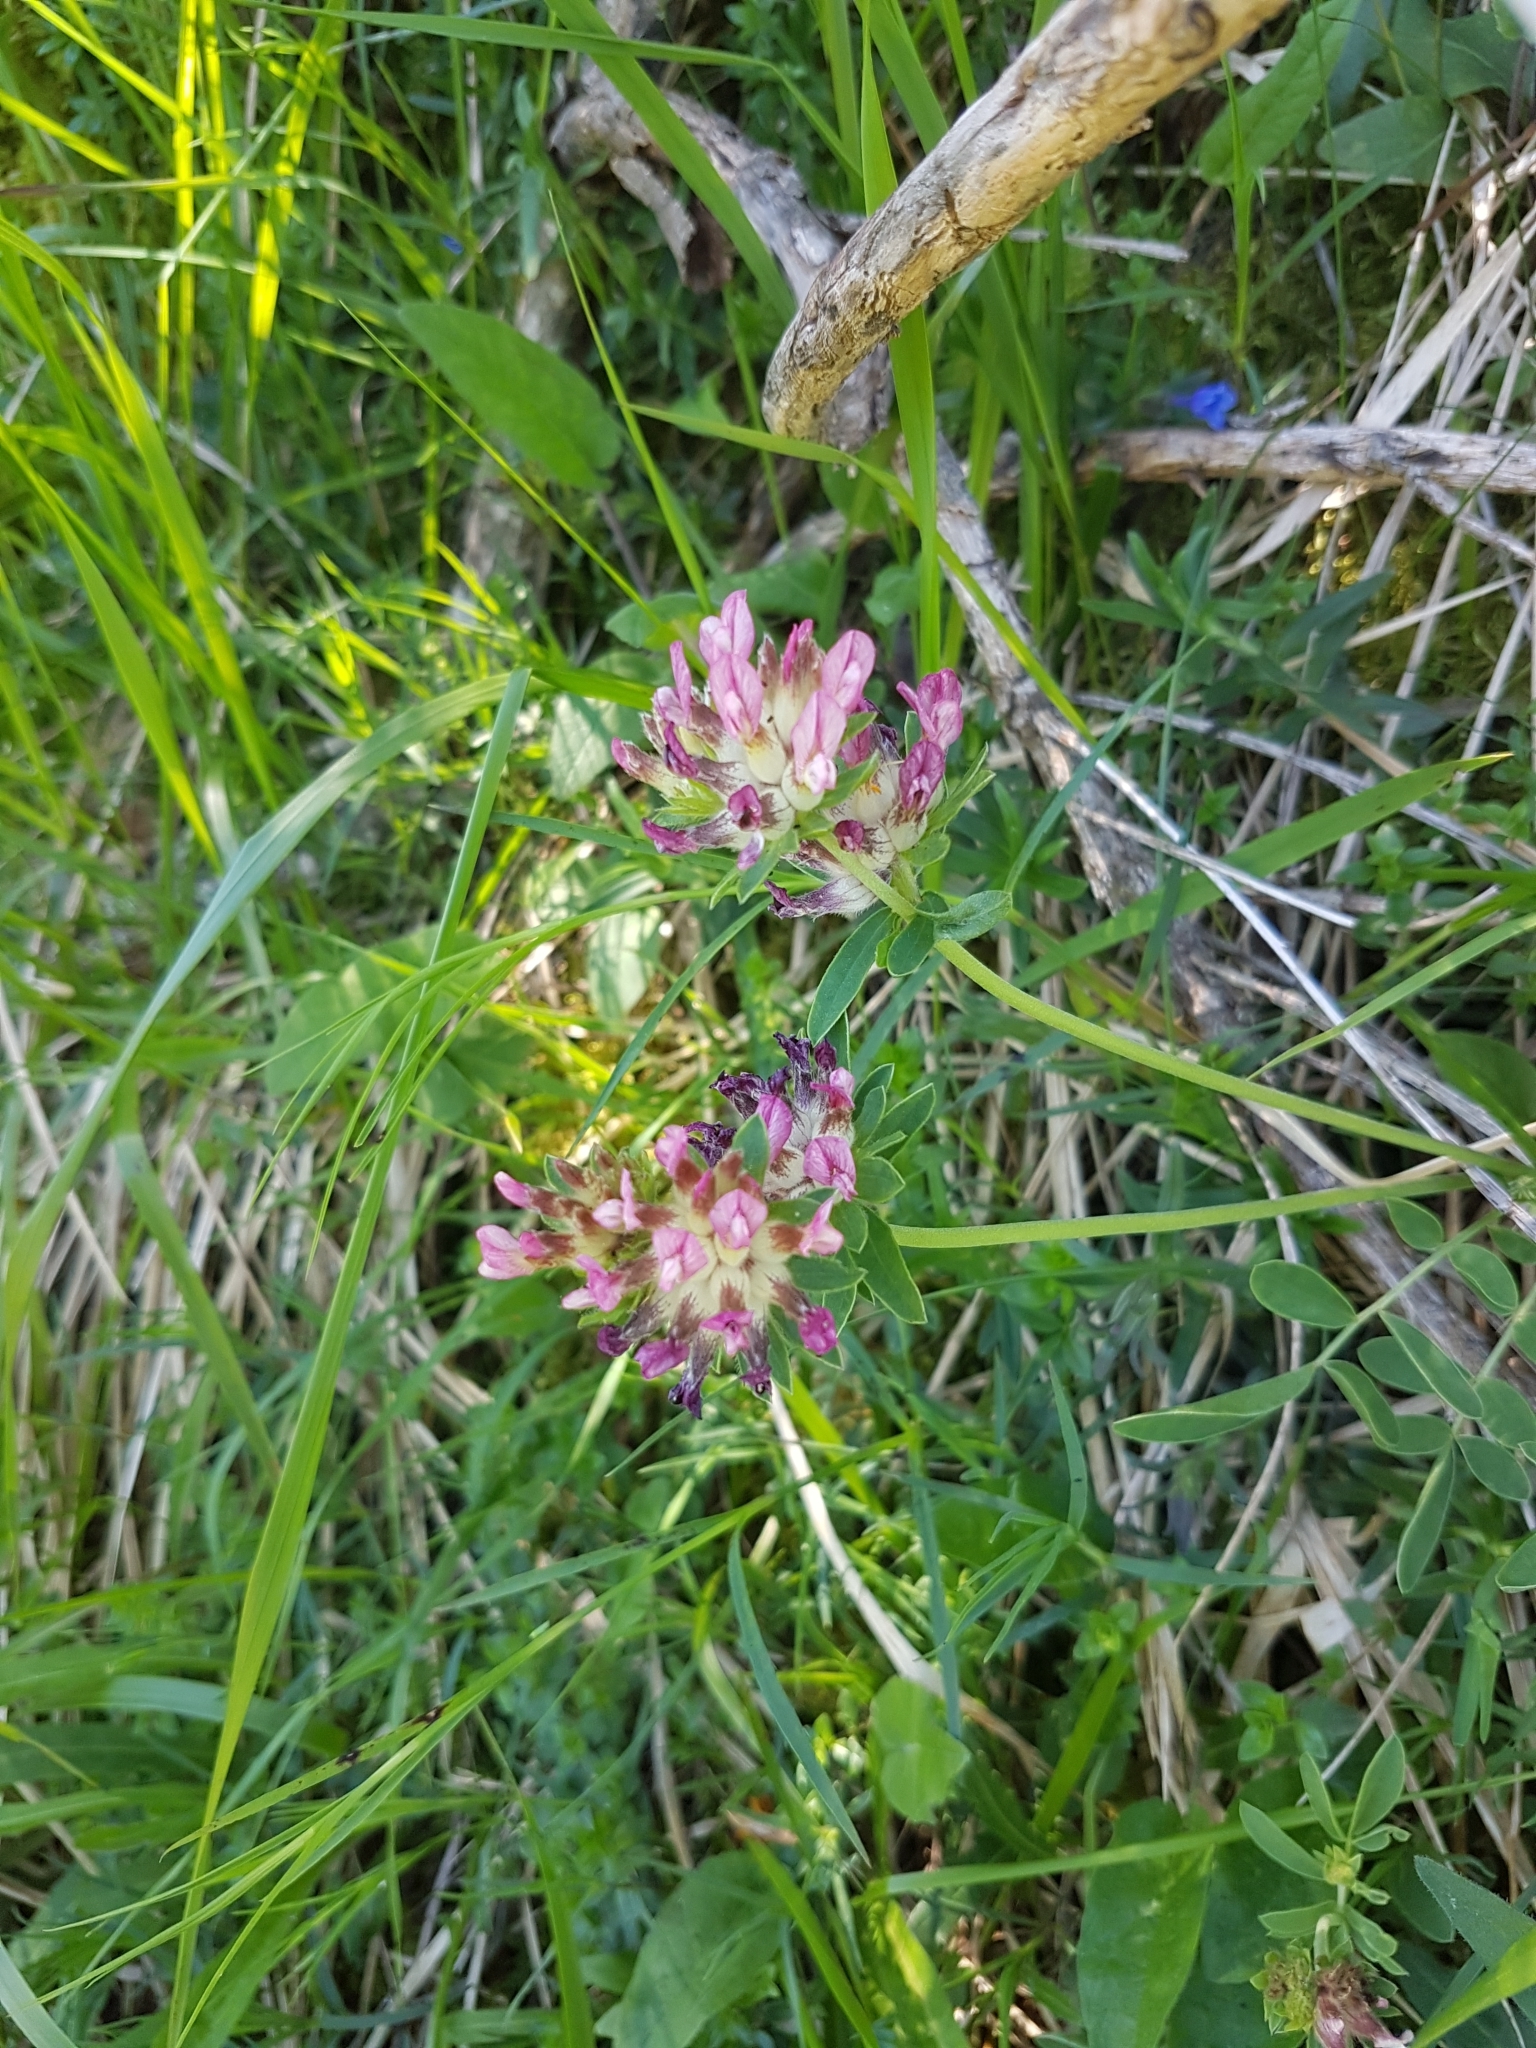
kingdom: Plantae
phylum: Tracheophyta
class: Magnoliopsida
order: Fabales
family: Fabaceae
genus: Anthyllis
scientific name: Anthyllis vulneraria
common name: Kidney vetch
